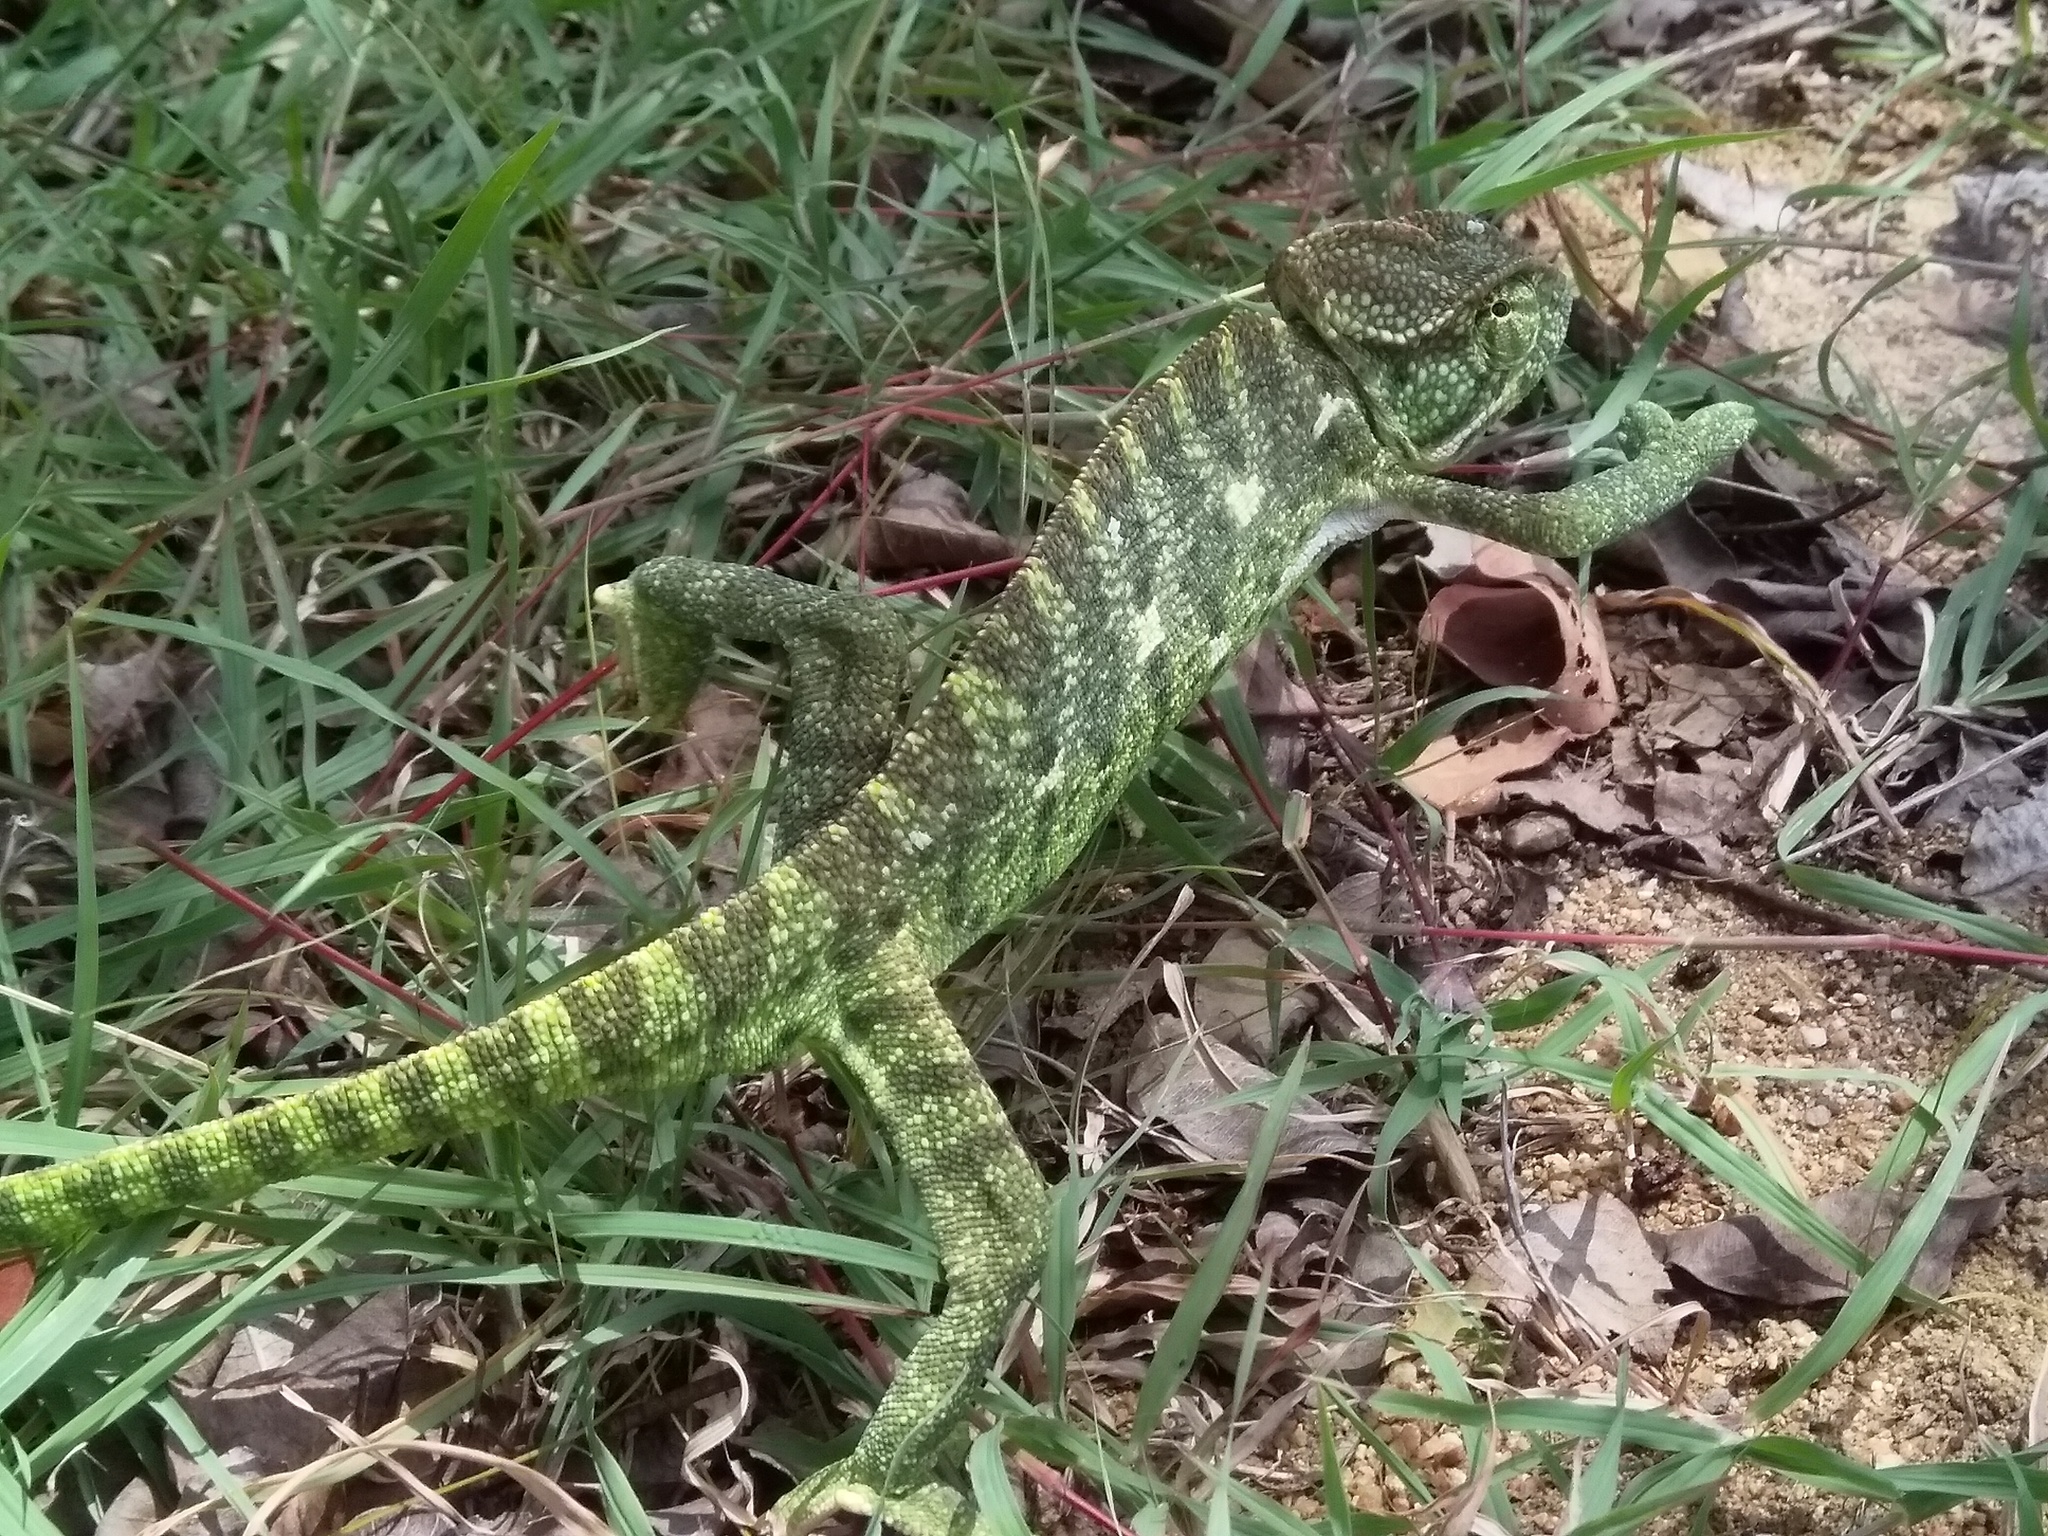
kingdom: Animalia
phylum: Chordata
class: Squamata
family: Chamaeleonidae
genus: Chamaeleo
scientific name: Chamaeleo zeylanicus
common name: Indian chameleon
